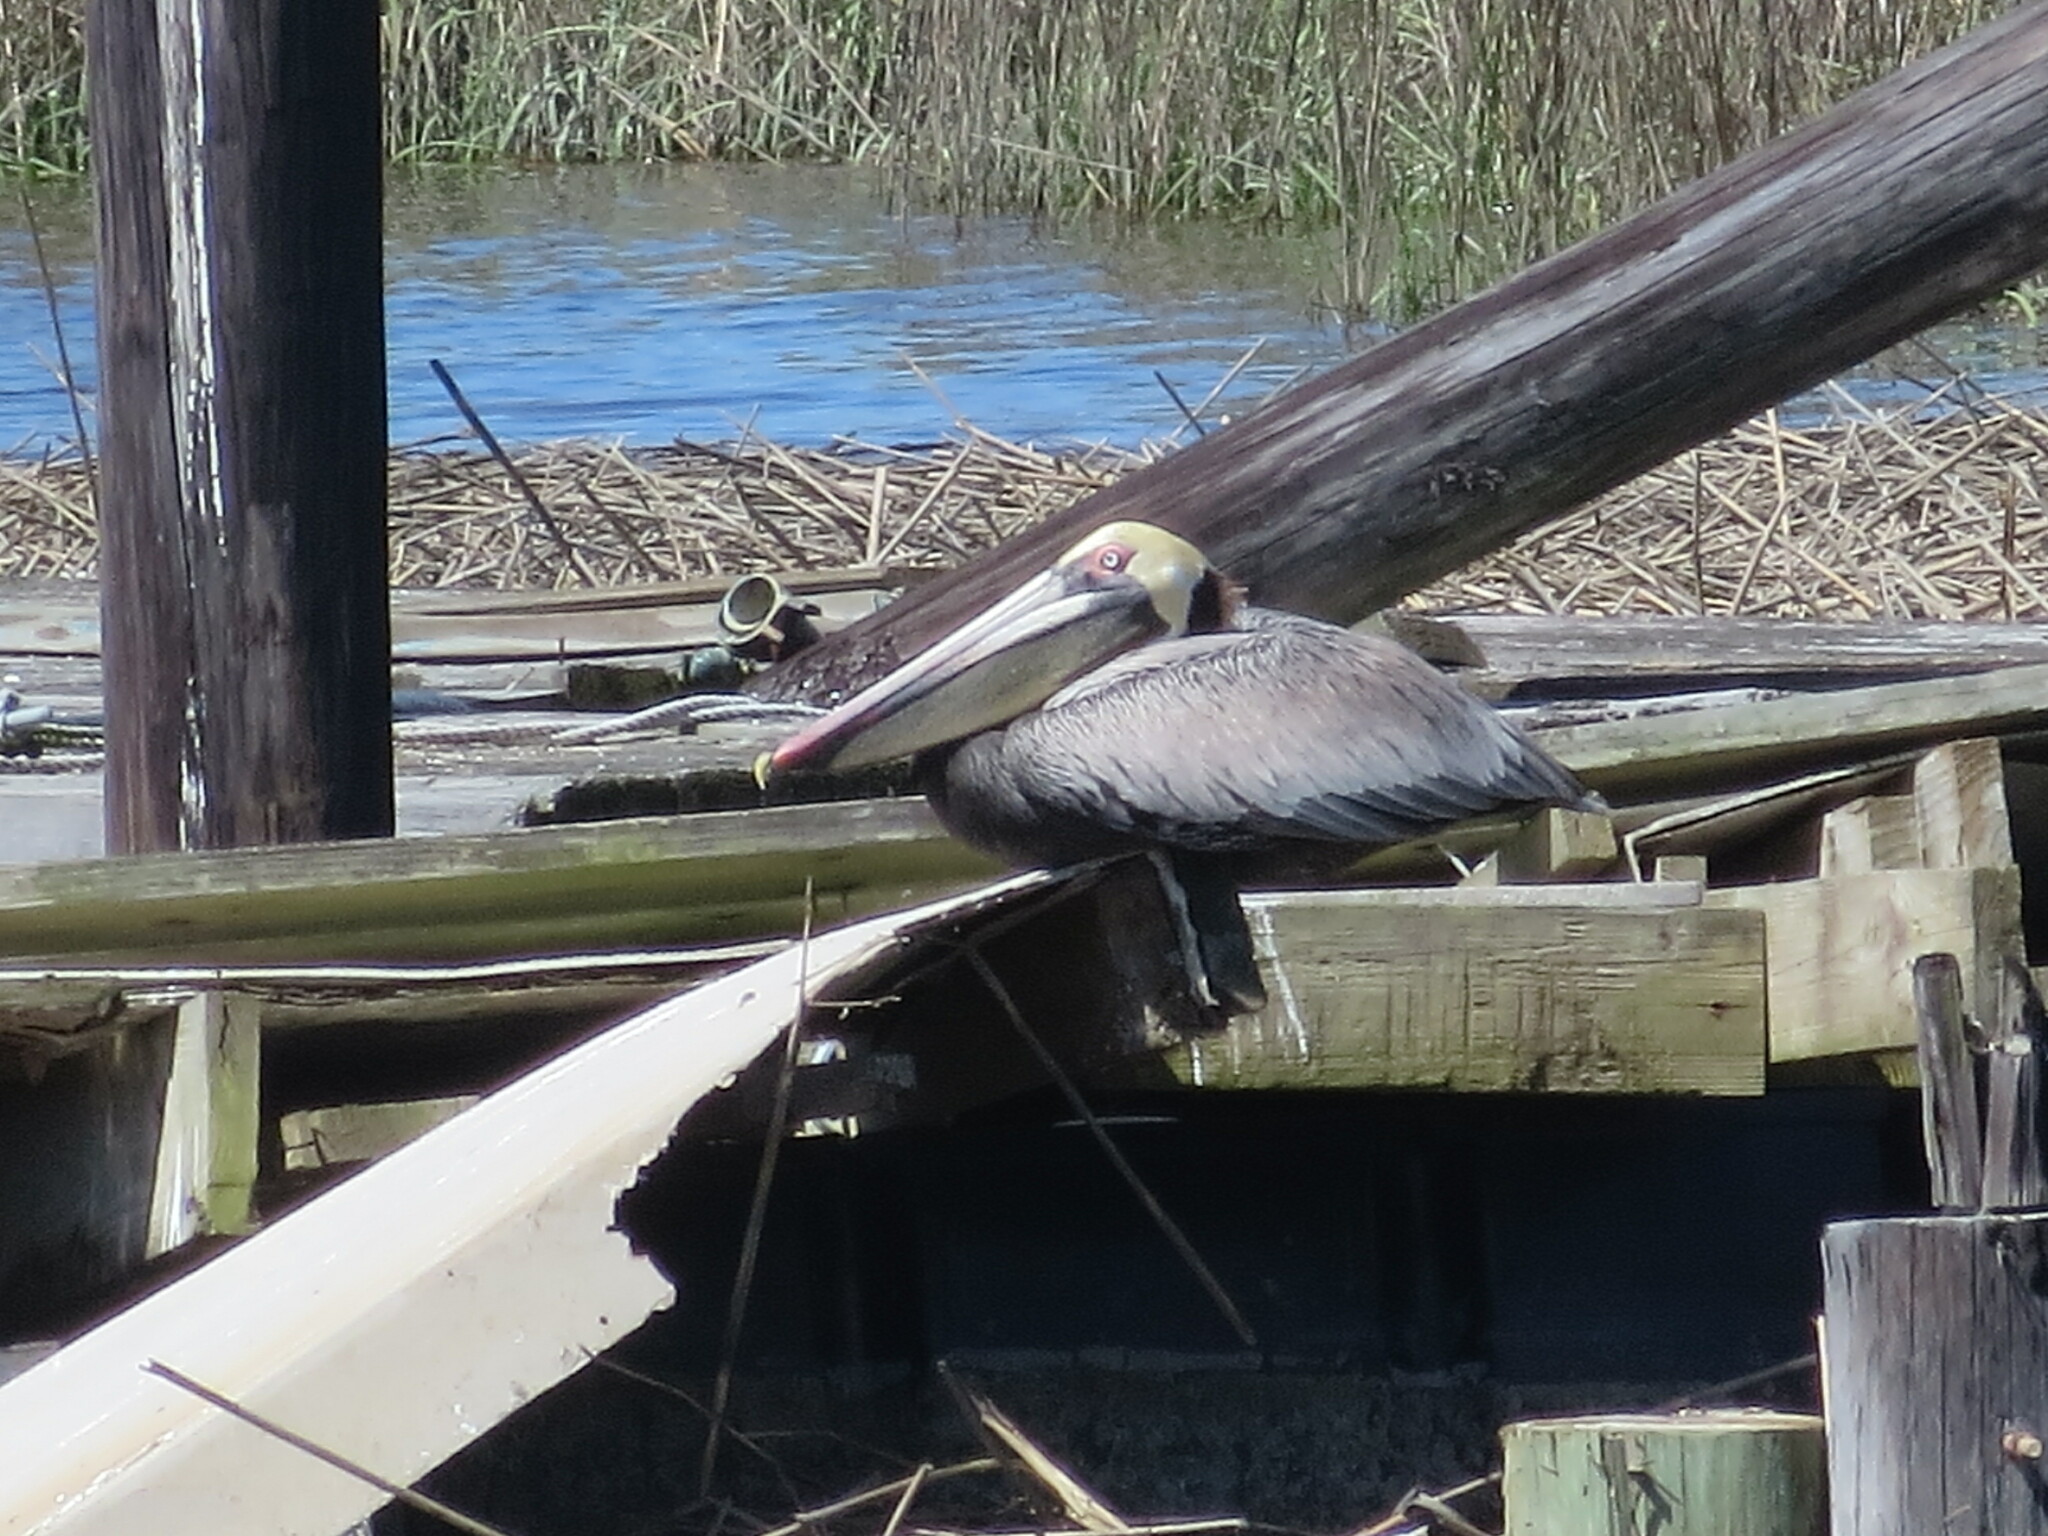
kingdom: Animalia
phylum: Chordata
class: Aves
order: Pelecaniformes
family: Pelecanidae
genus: Pelecanus
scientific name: Pelecanus occidentalis
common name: Brown pelican
